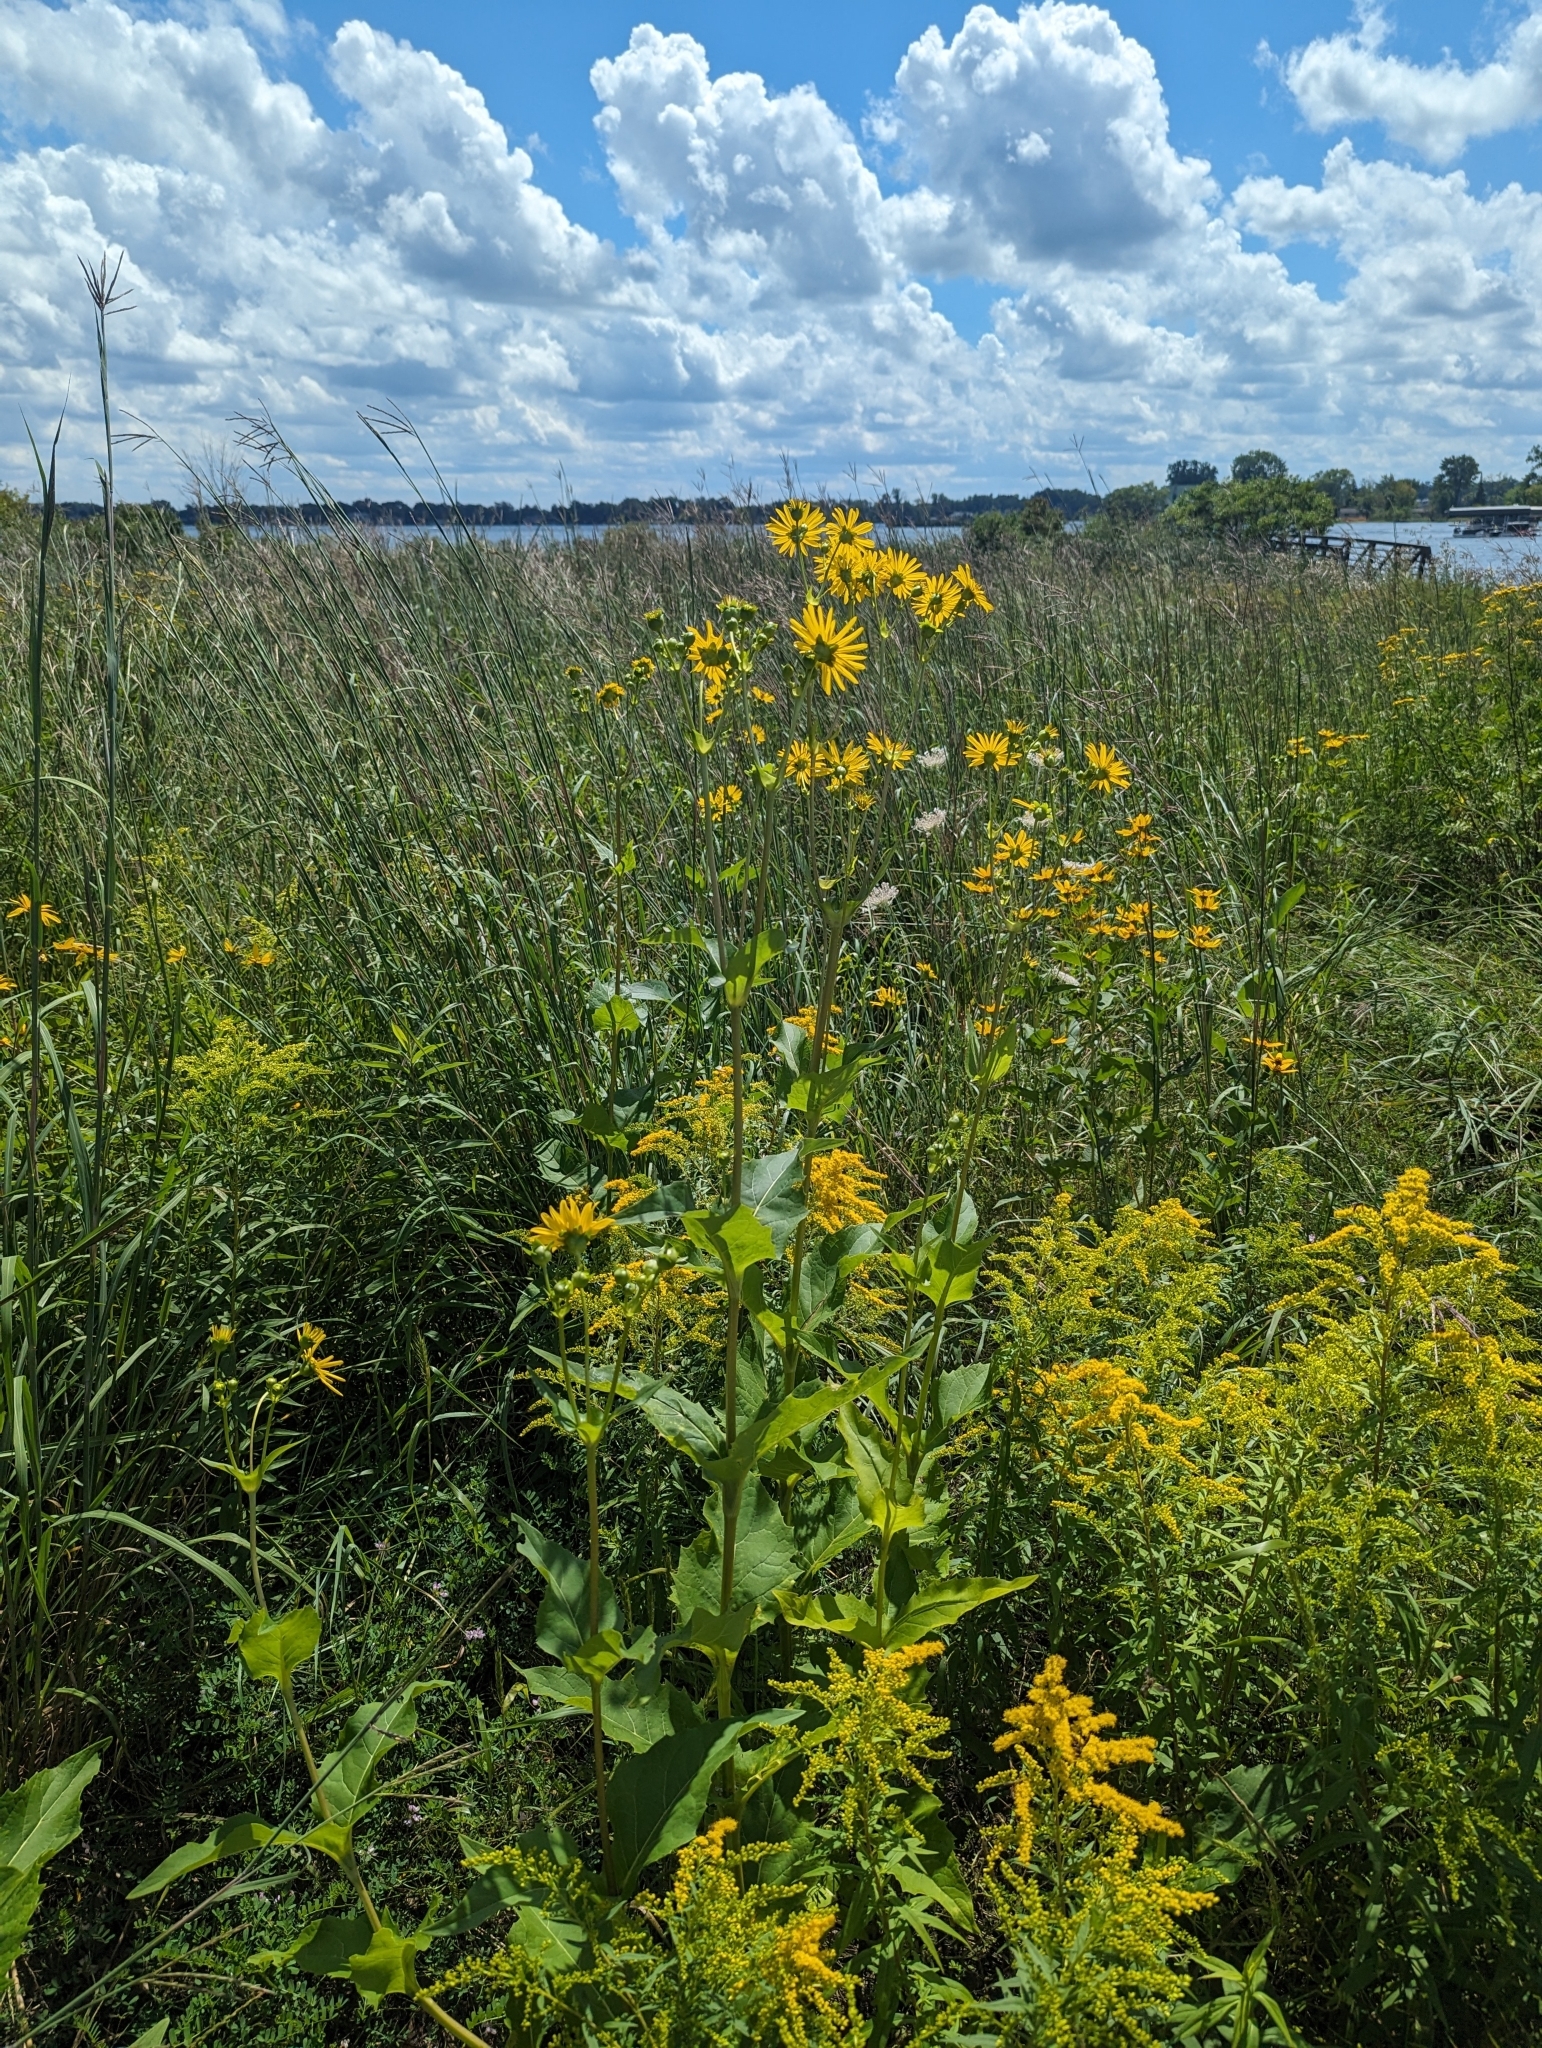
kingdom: Plantae
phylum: Tracheophyta
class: Magnoliopsida
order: Asterales
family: Asteraceae
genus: Silphium
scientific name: Silphium perfoliatum
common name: Cup-plant
